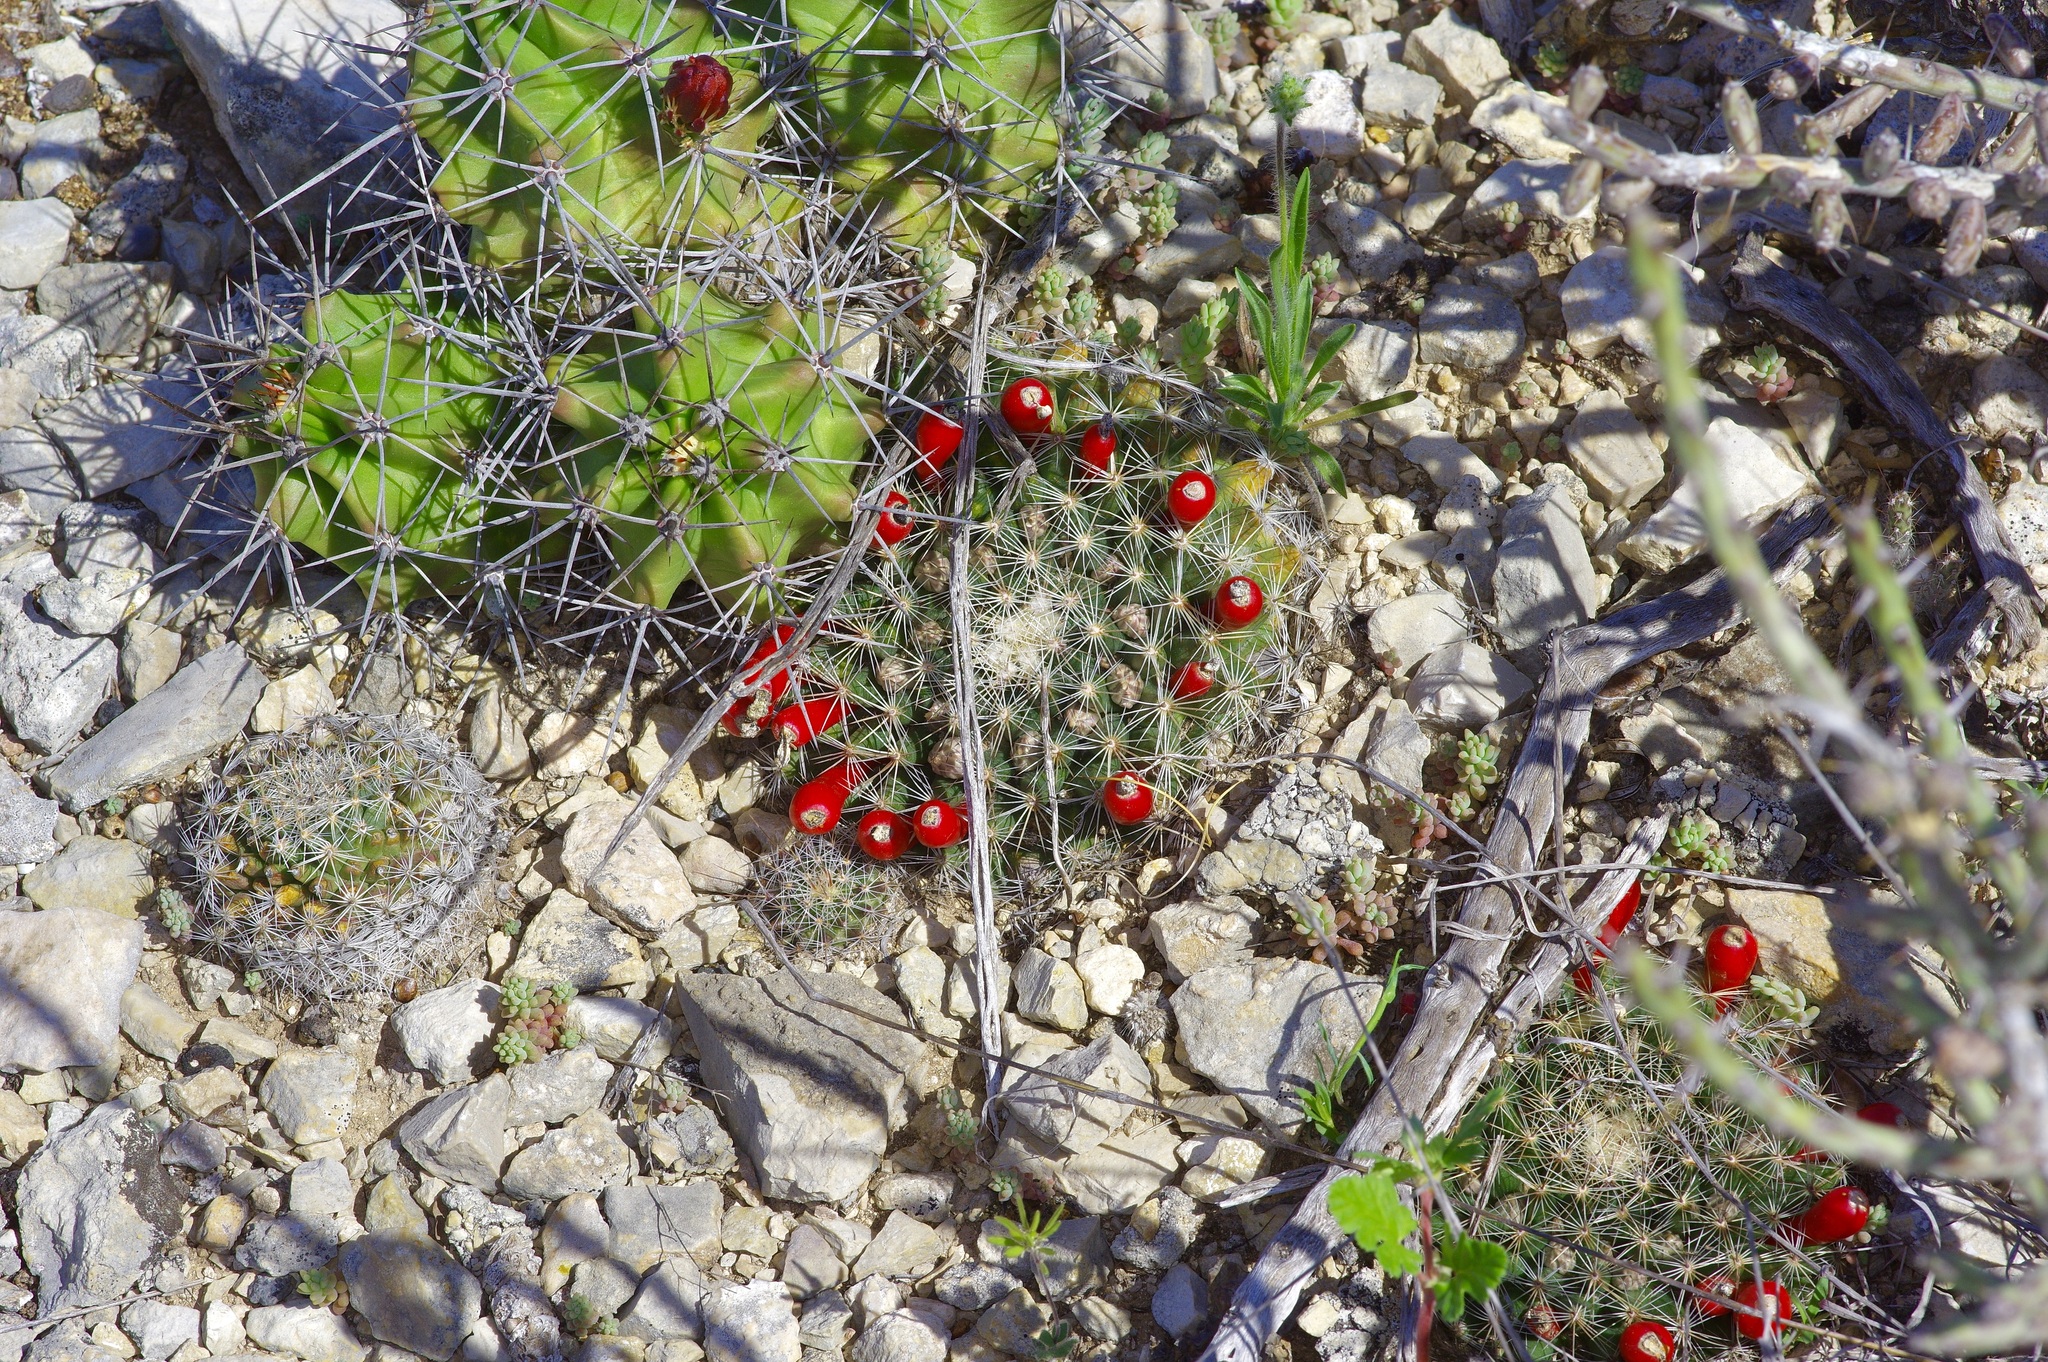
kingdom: Plantae
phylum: Tracheophyta
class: Magnoliopsida
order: Caryophyllales
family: Cactaceae
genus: Mammillaria
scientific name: Mammillaria heyderi
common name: Little nipple cactus
